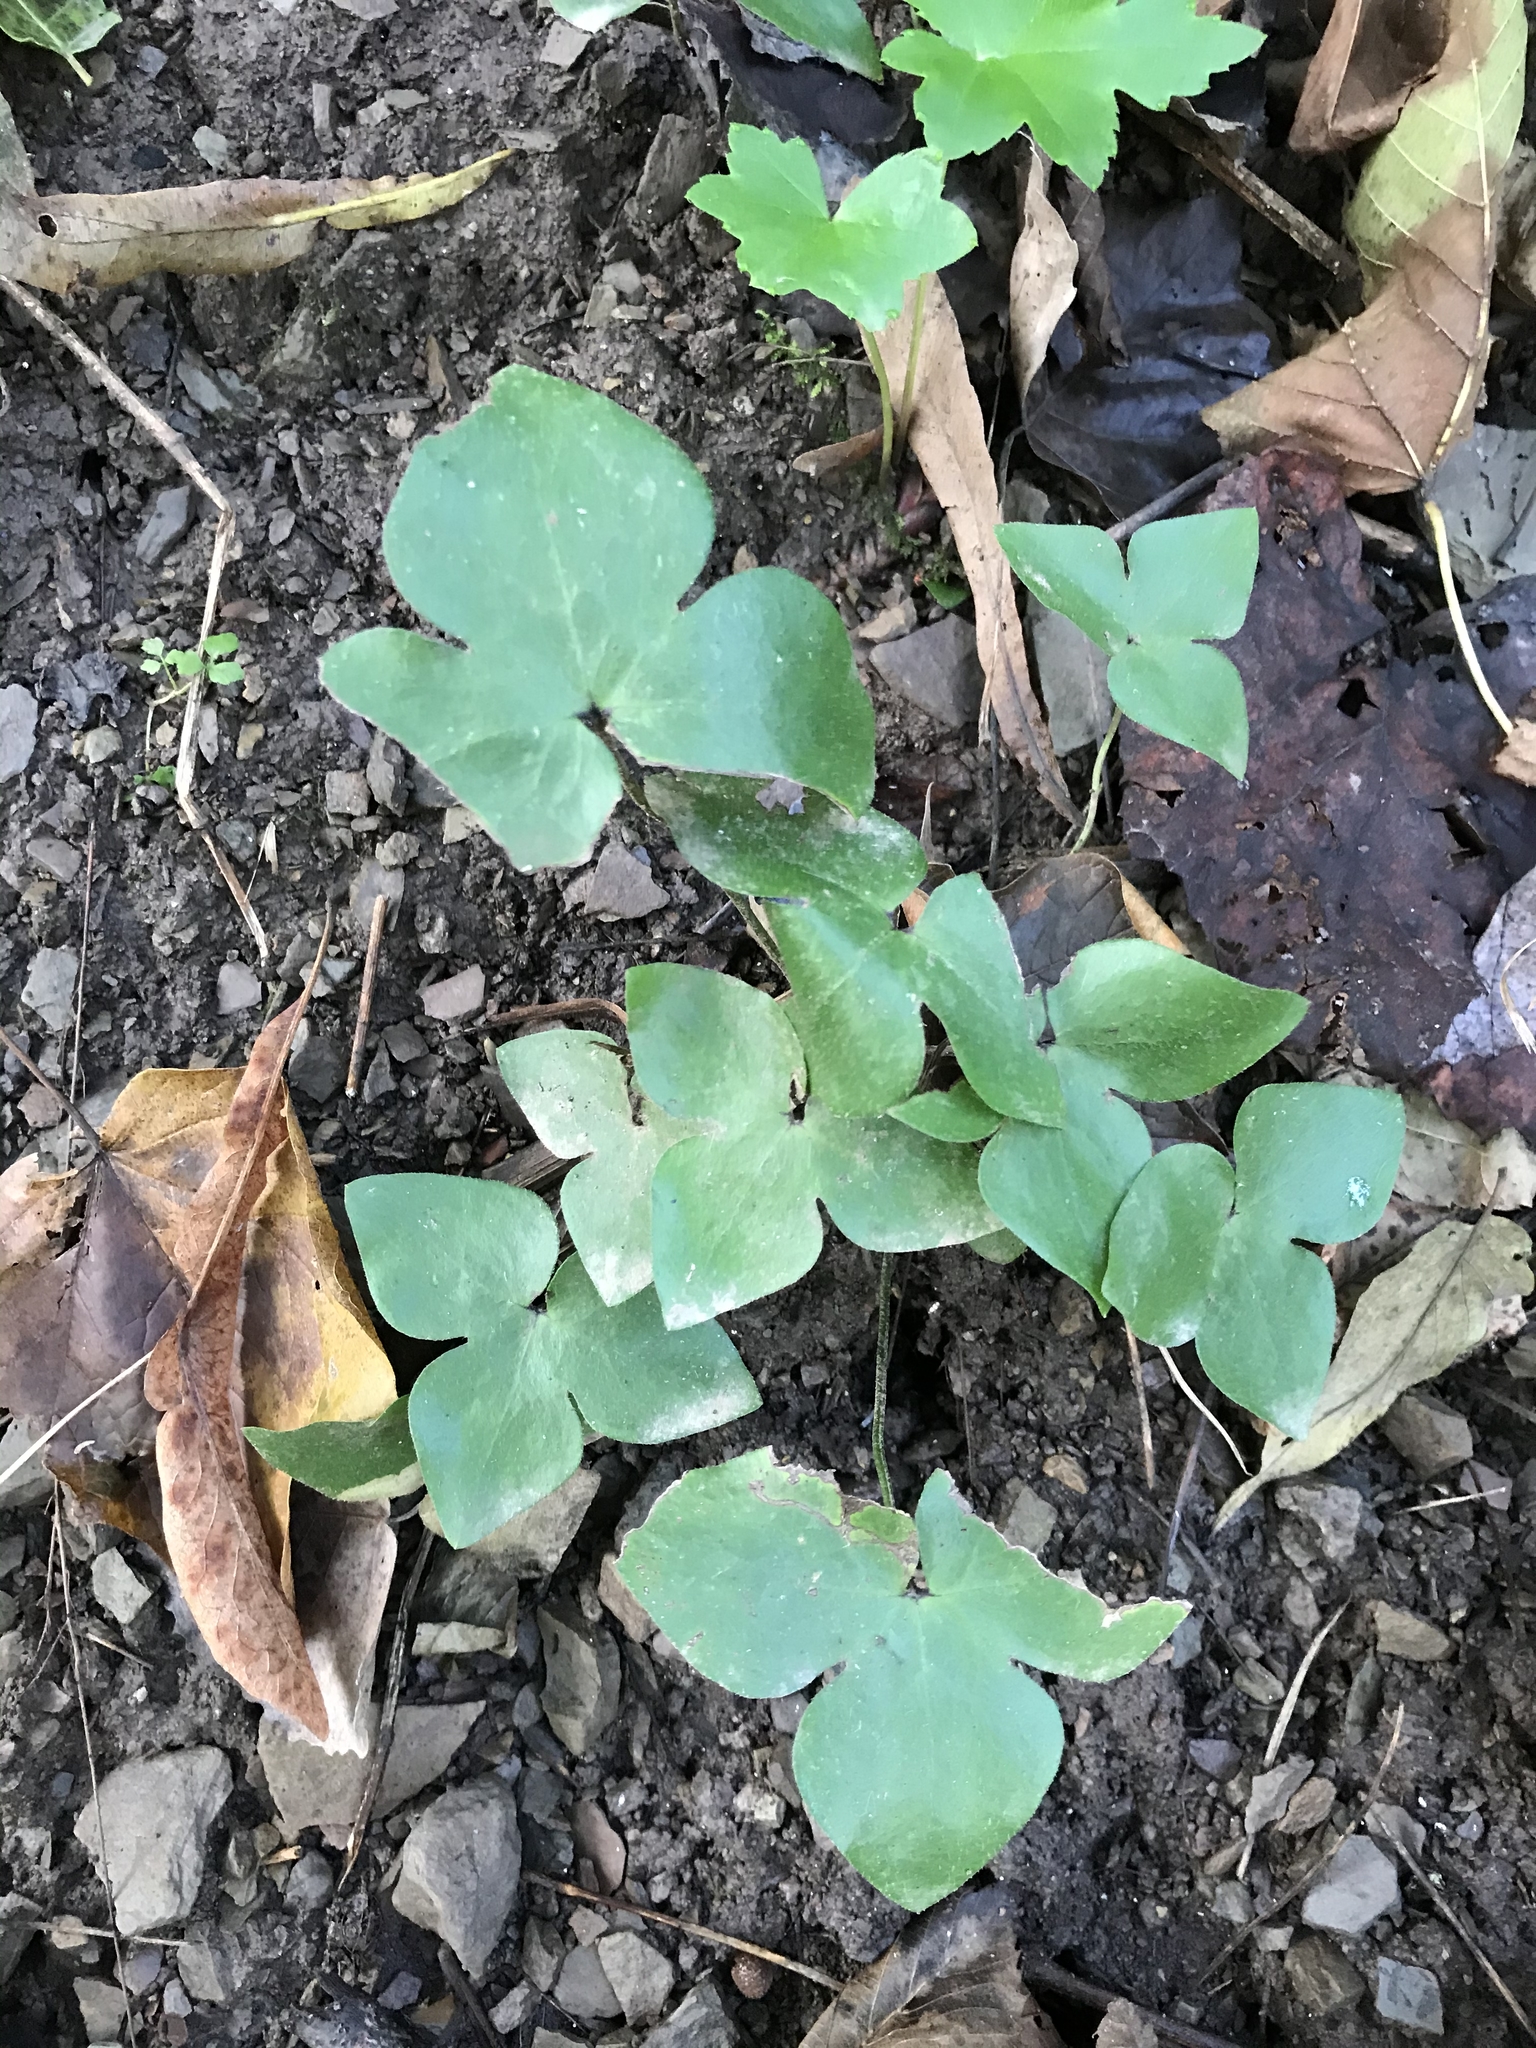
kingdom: Plantae
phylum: Tracheophyta
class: Magnoliopsida
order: Ranunculales
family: Ranunculaceae
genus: Hepatica
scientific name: Hepatica acutiloba
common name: Sharp-lobed hepatica
